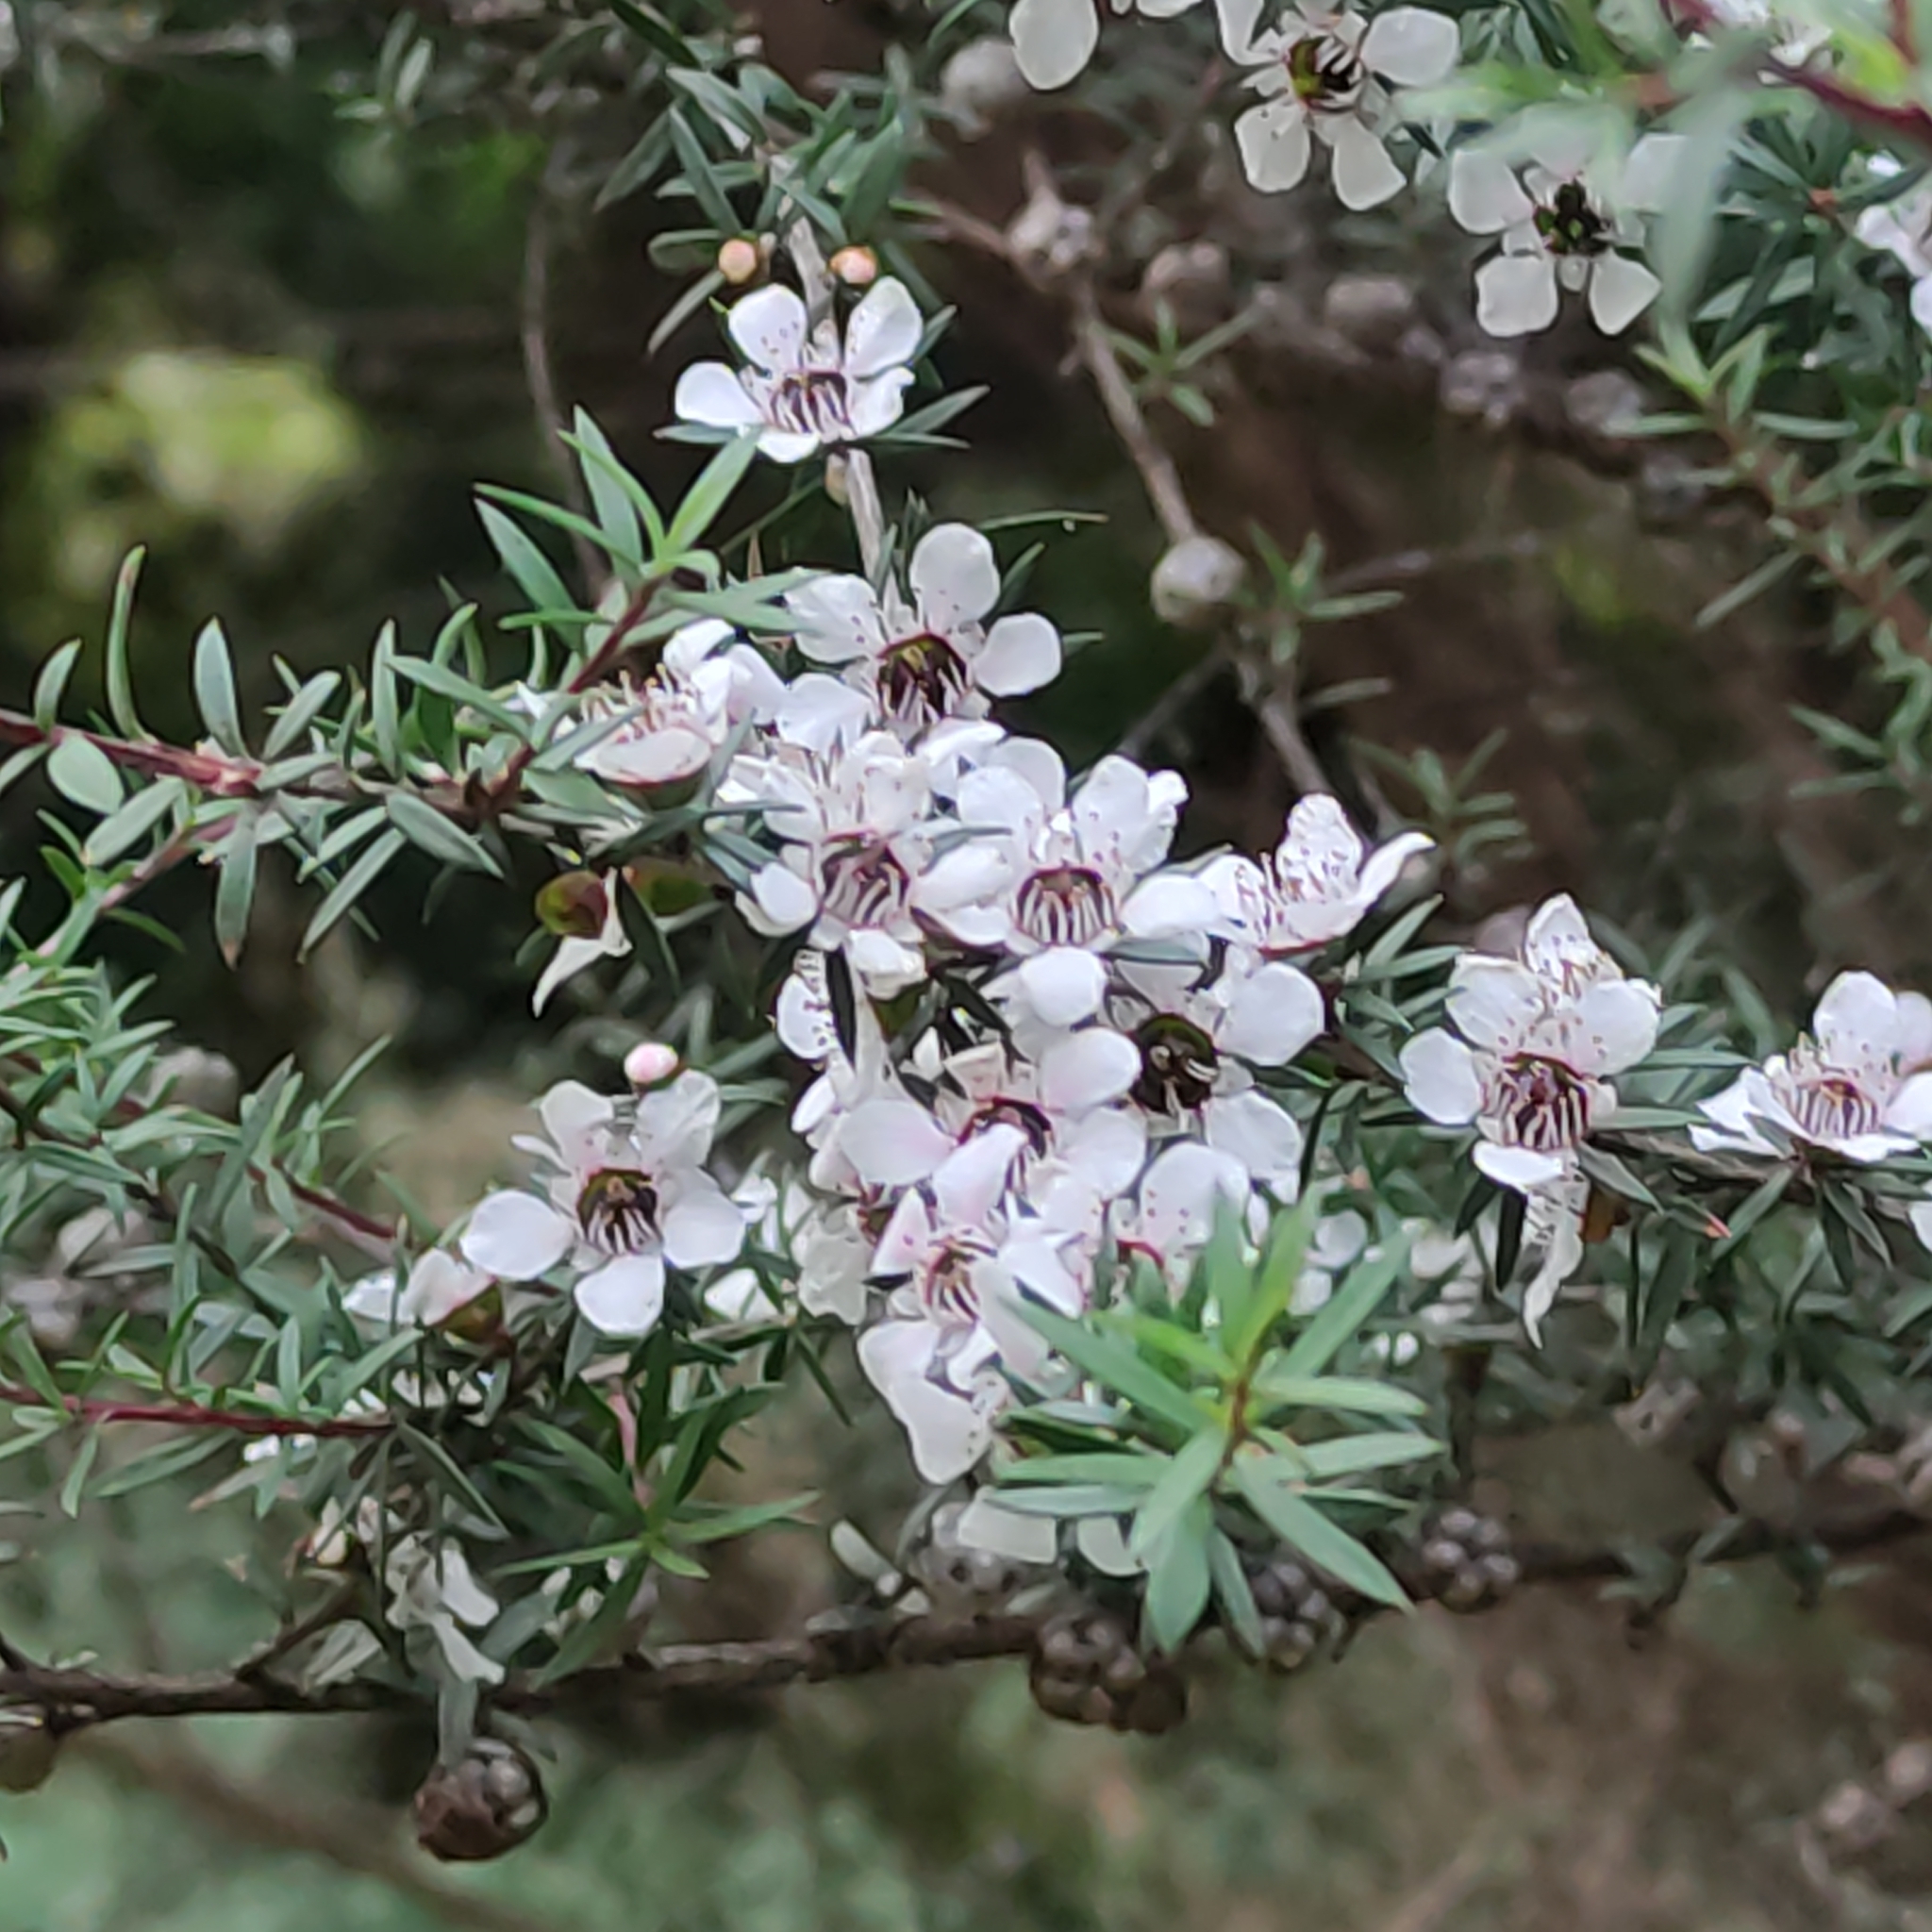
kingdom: Plantae
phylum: Tracheophyta
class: Magnoliopsida
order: Myrtales
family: Myrtaceae
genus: Leptospermum
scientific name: Leptospermum scoparium
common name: Broom tea-tree
